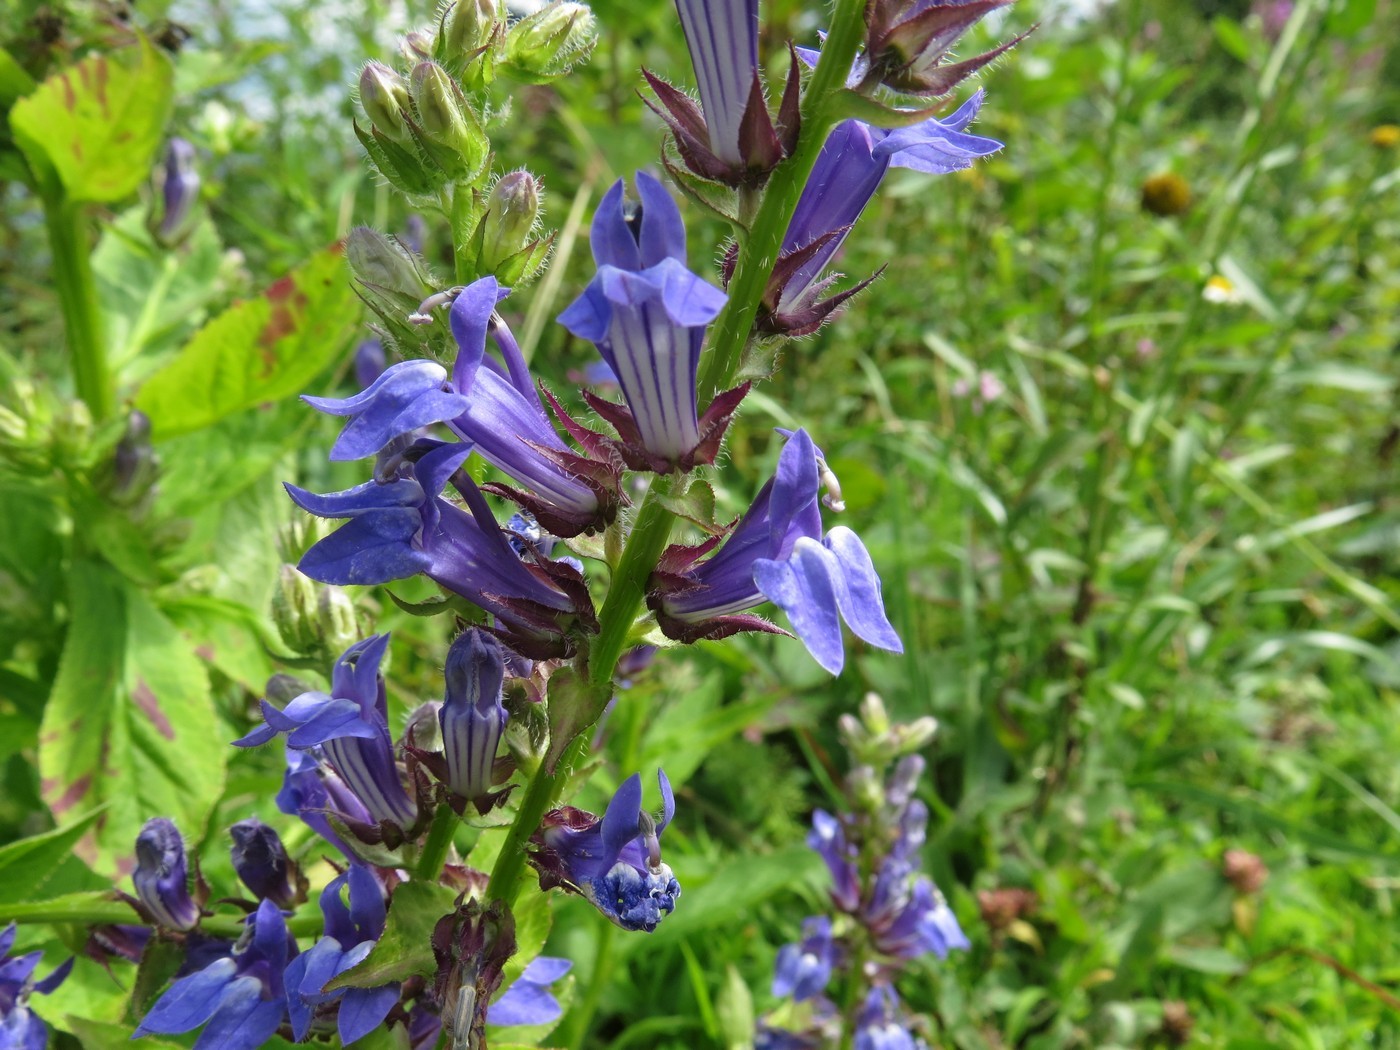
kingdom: Plantae
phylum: Tracheophyta
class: Magnoliopsida
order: Asterales
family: Campanulaceae
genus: Lobelia
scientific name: Lobelia siphilitica
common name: Great lobelia
